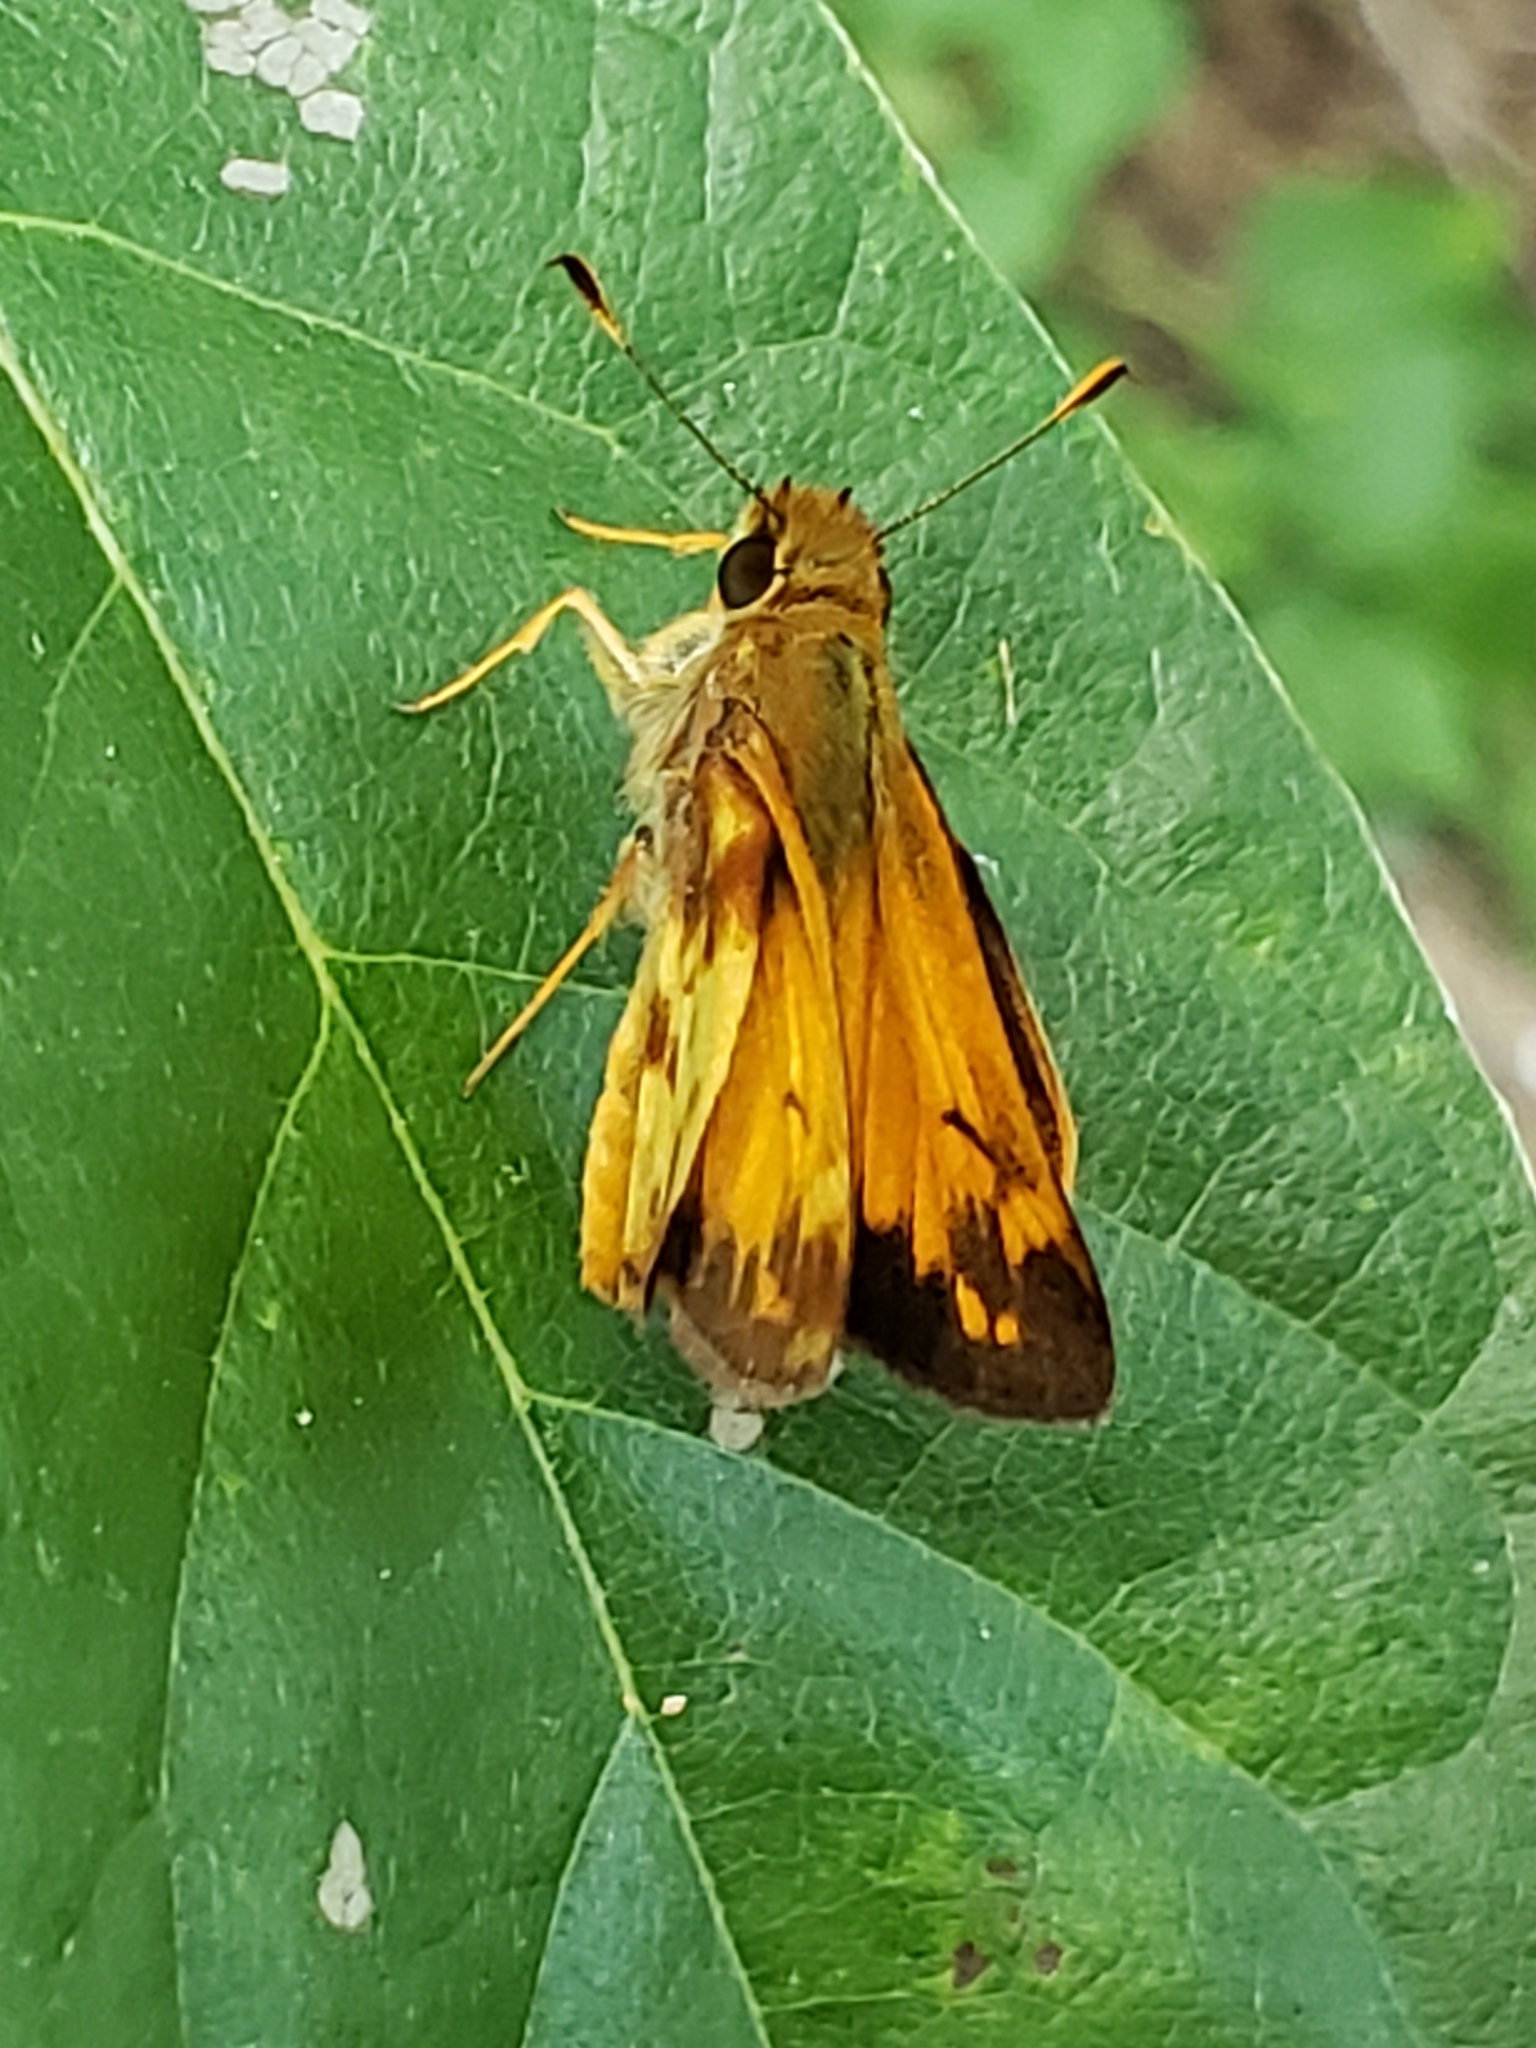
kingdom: Animalia
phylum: Arthropoda
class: Insecta
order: Lepidoptera
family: Hesperiidae
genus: Lon
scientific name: Lon zabulon
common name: Zabulon skipper
